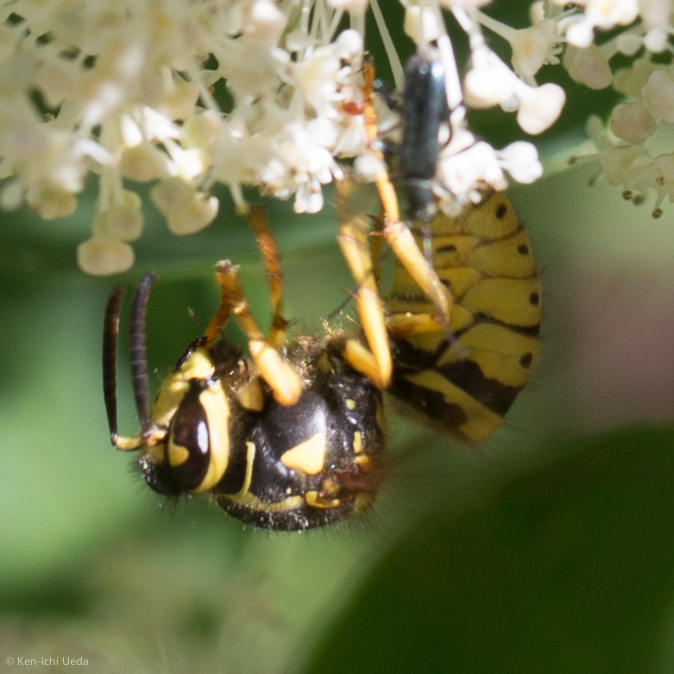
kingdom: Animalia
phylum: Arthropoda
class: Insecta
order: Hymenoptera
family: Vespidae
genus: Dolichovespula
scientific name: Dolichovespula arenaria
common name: Aerial yellowjacket
